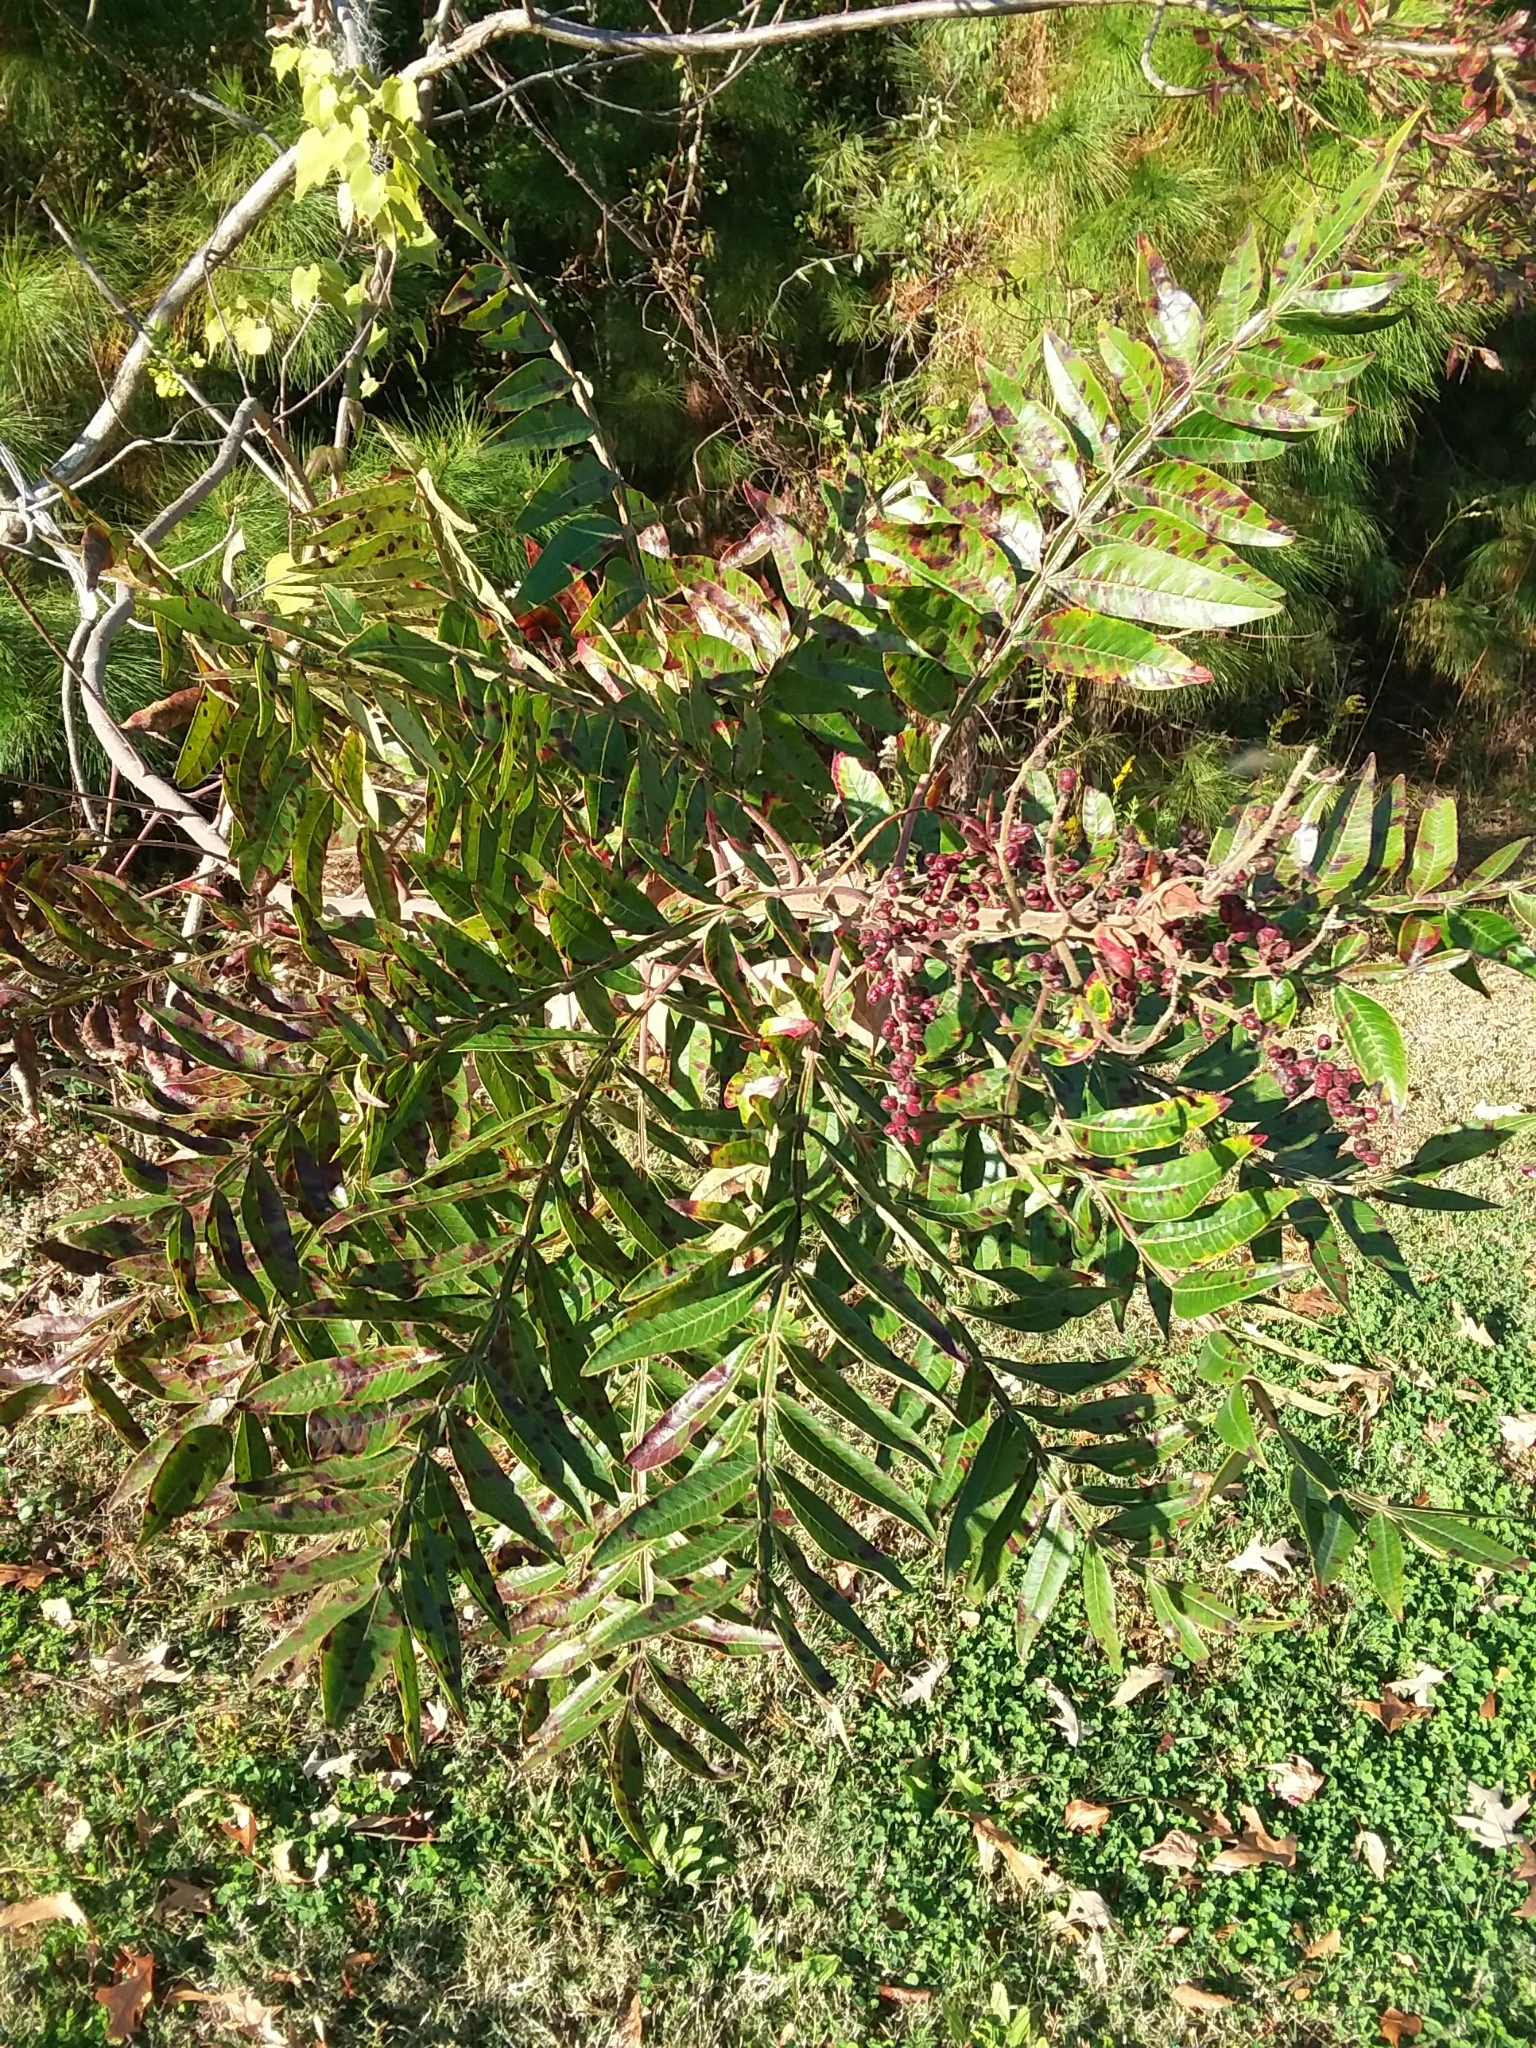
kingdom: Plantae
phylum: Tracheophyta
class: Magnoliopsida
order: Sapindales
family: Anacardiaceae
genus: Rhus
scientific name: Rhus copallina
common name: Shining sumac
